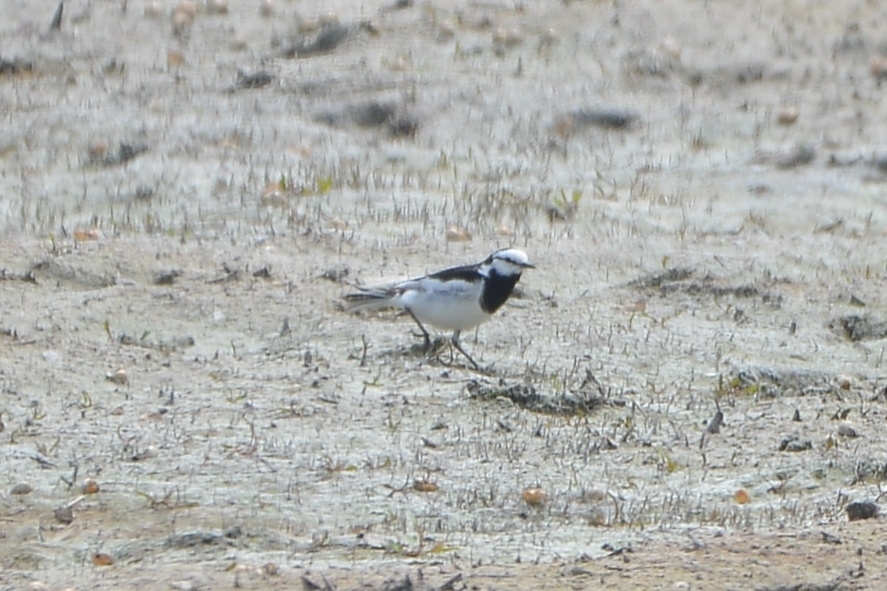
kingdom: Animalia
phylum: Chordata
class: Aves
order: Passeriformes
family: Motacillidae
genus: Motacilla
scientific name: Motacilla alba
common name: White wagtail
